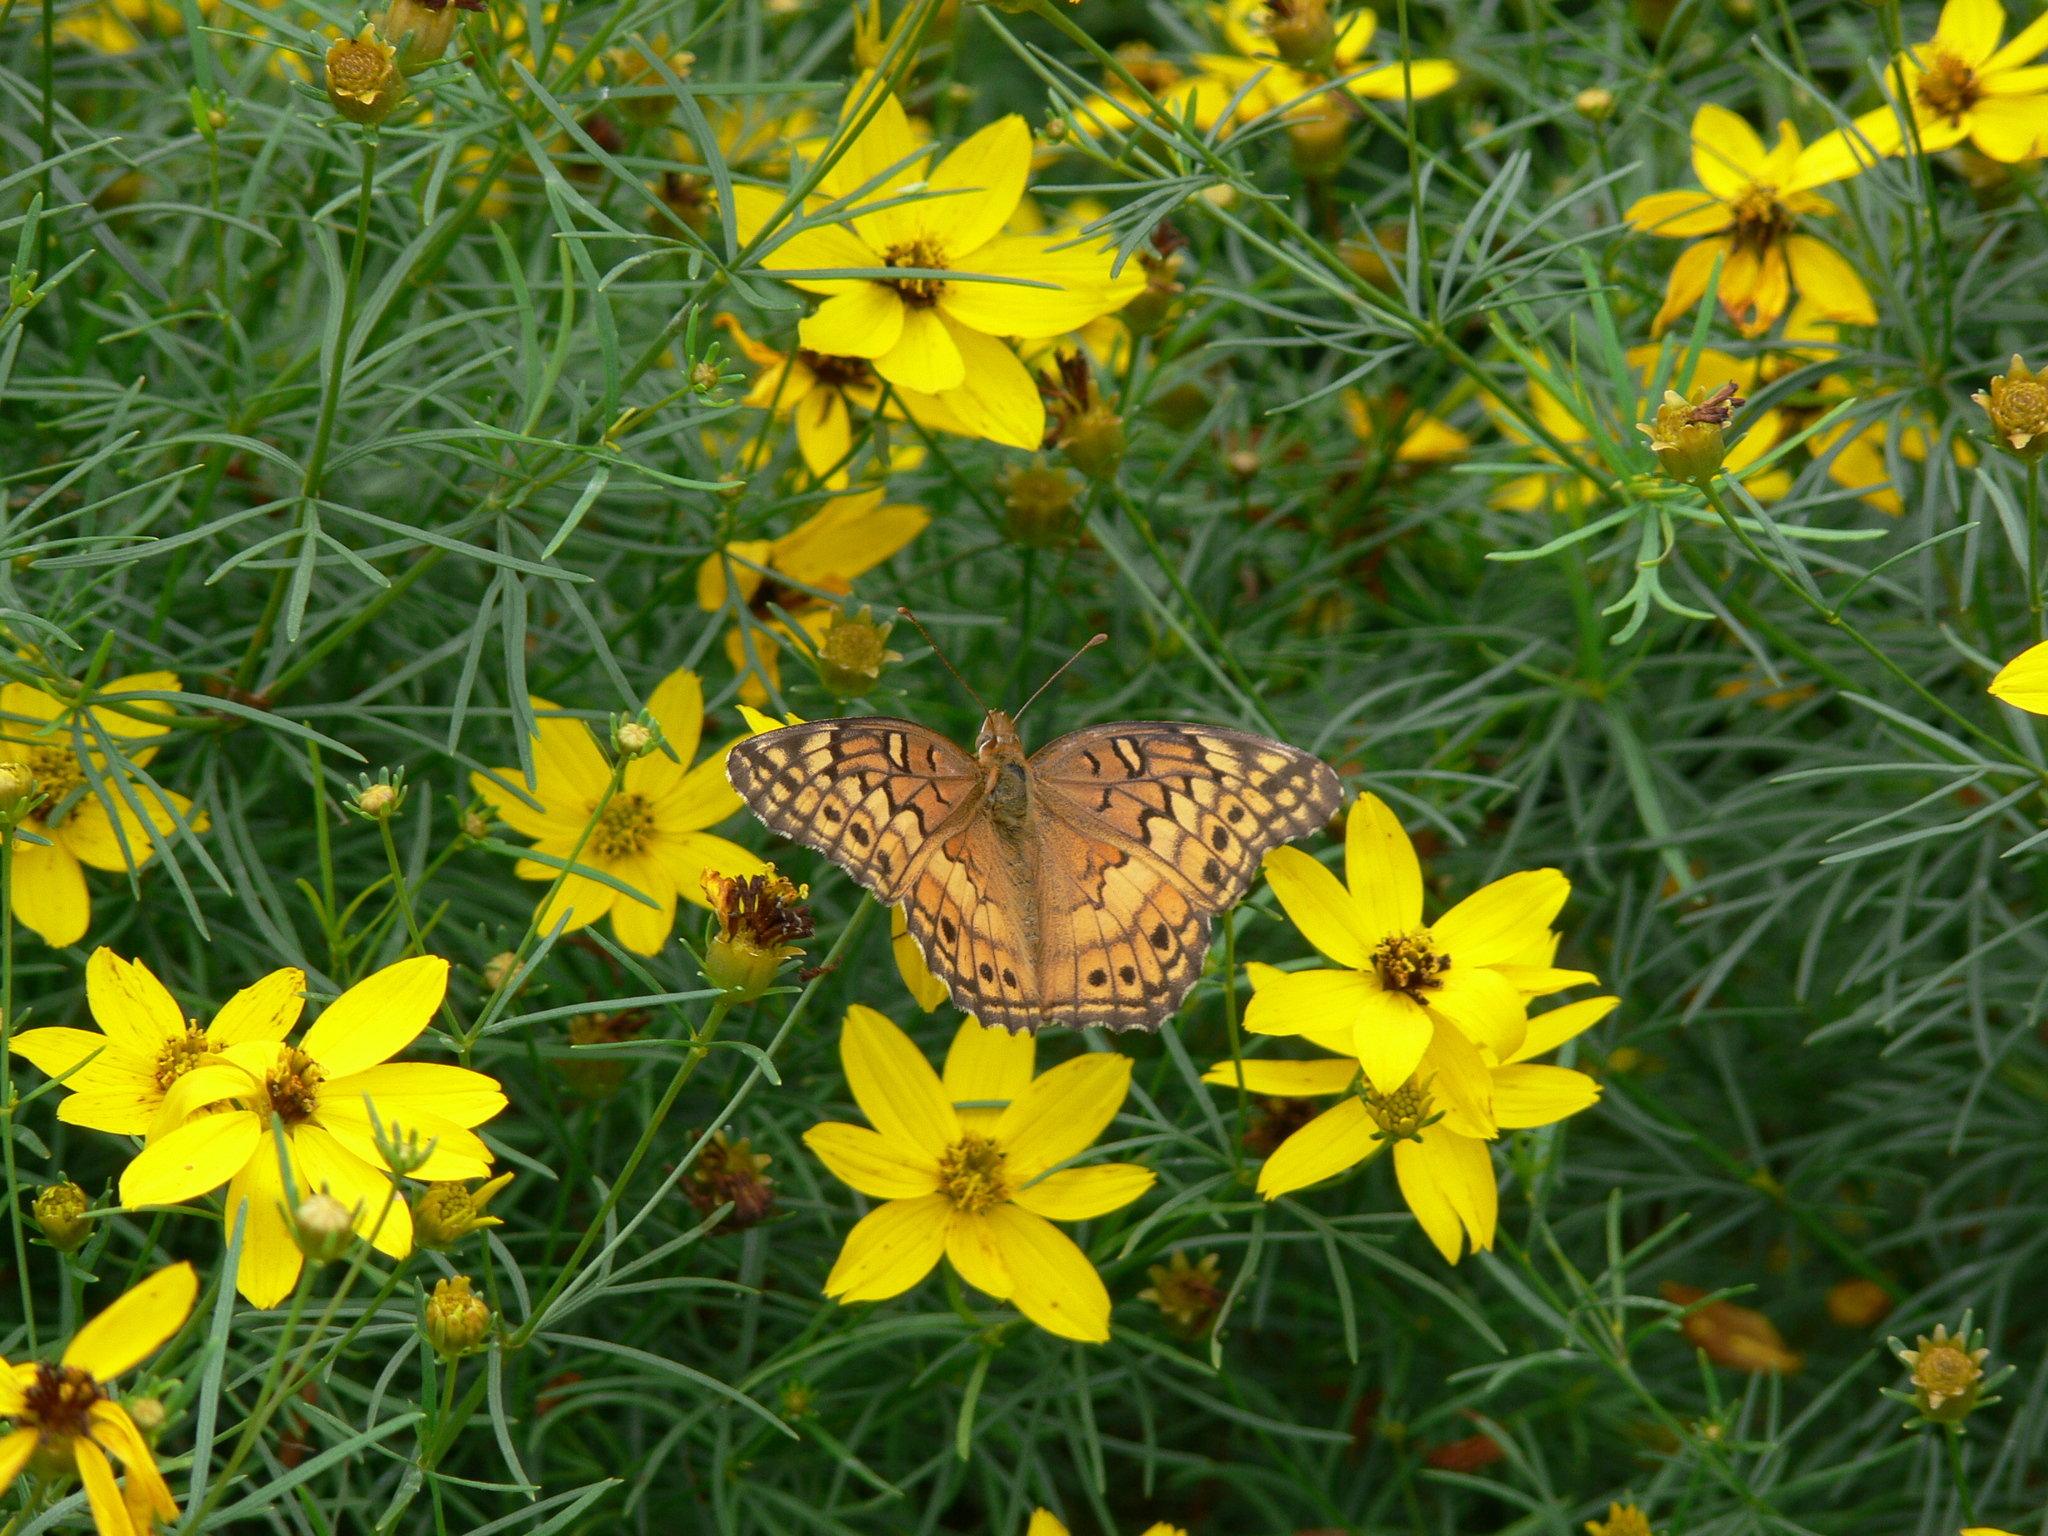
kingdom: Animalia
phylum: Arthropoda
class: Insecta
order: Lepidoptera
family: Nymphalidae
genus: Euptoieta
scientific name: Euptoieta claudia
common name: Variegated fritillary
